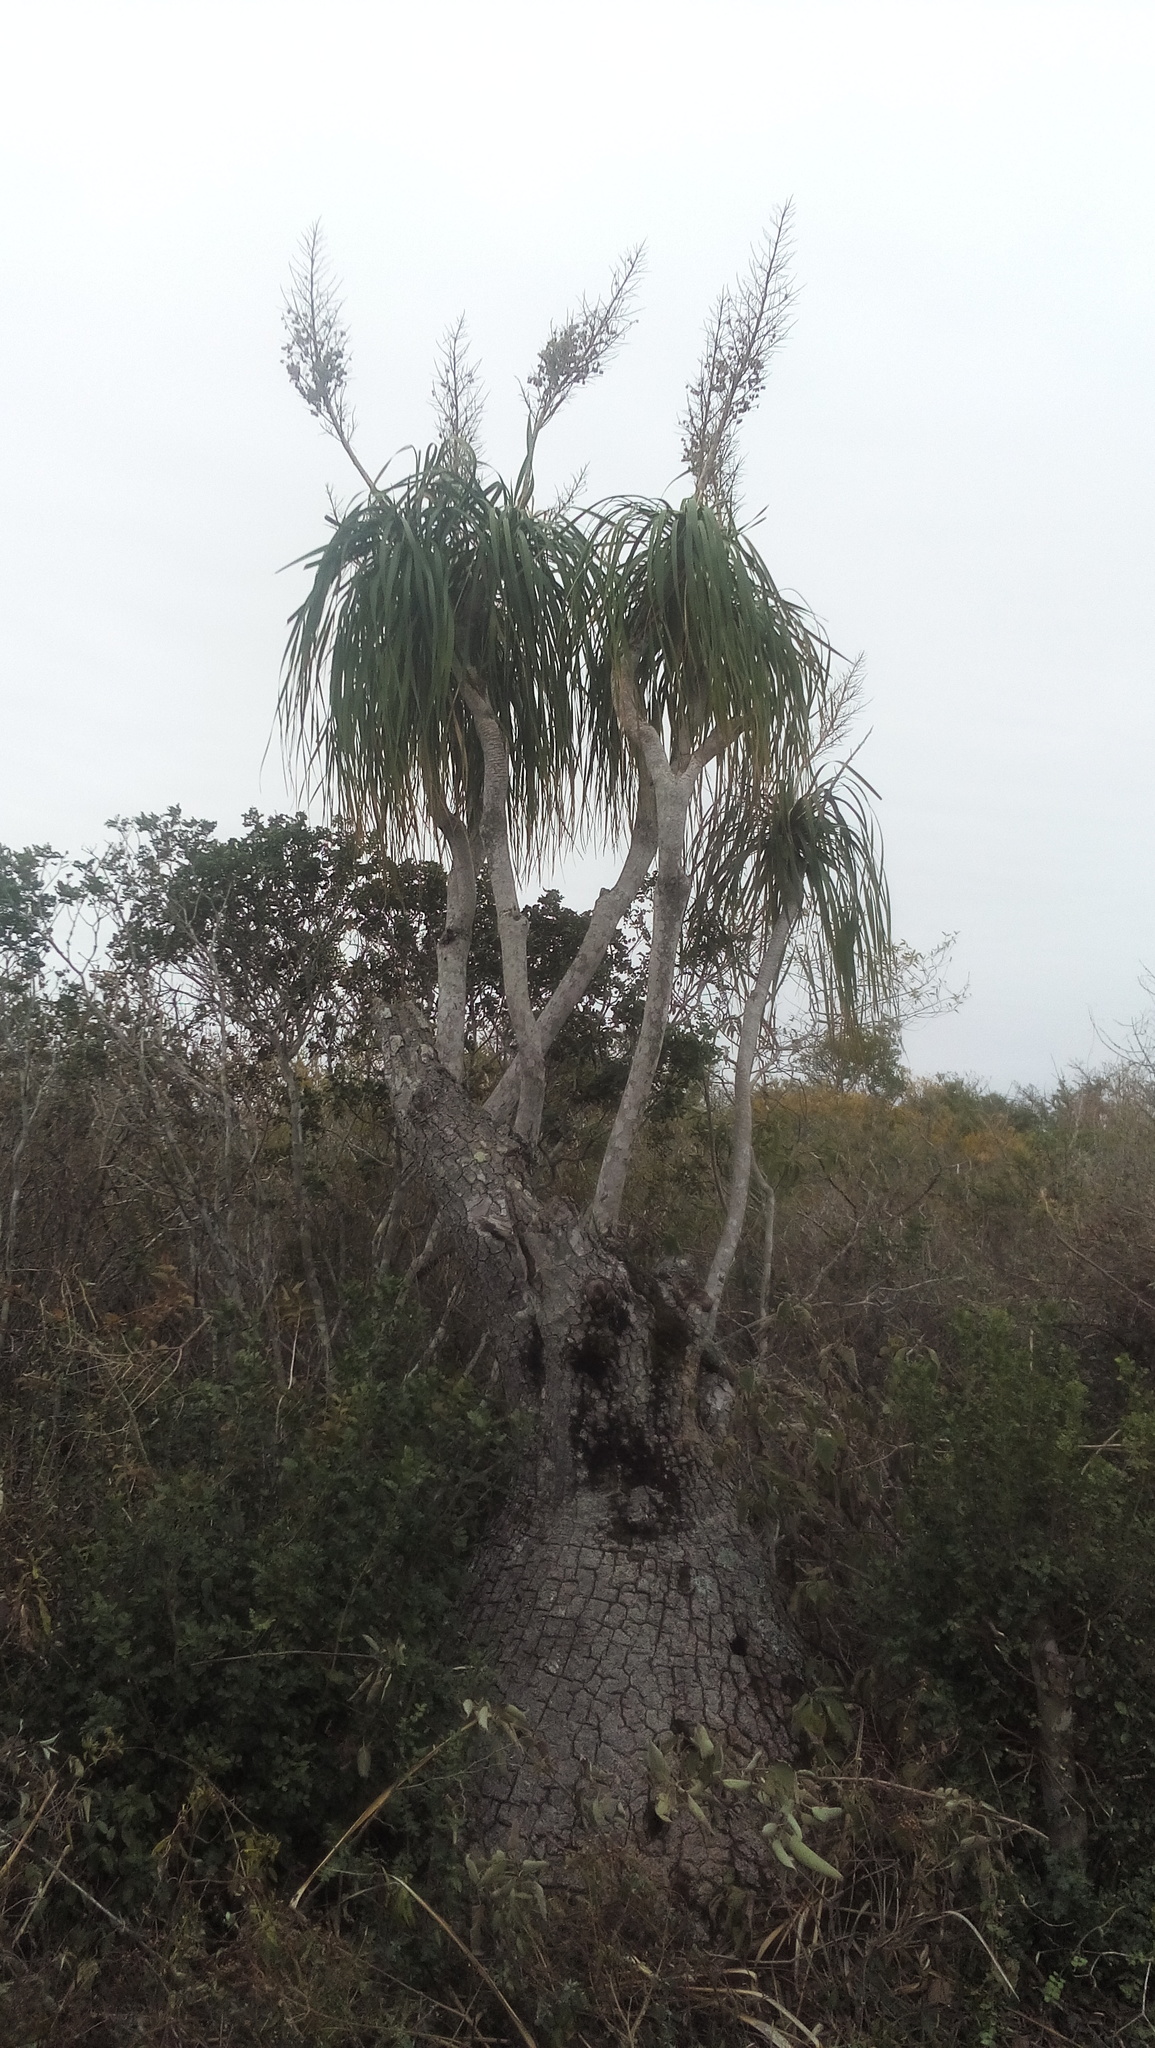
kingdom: Plantae
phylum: Tracheophyta
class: Liliopsida
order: Asparagales
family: Asparagaceae
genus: Beaucarnea
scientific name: Beaucarnea recurvata
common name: Stripy  ponytail
